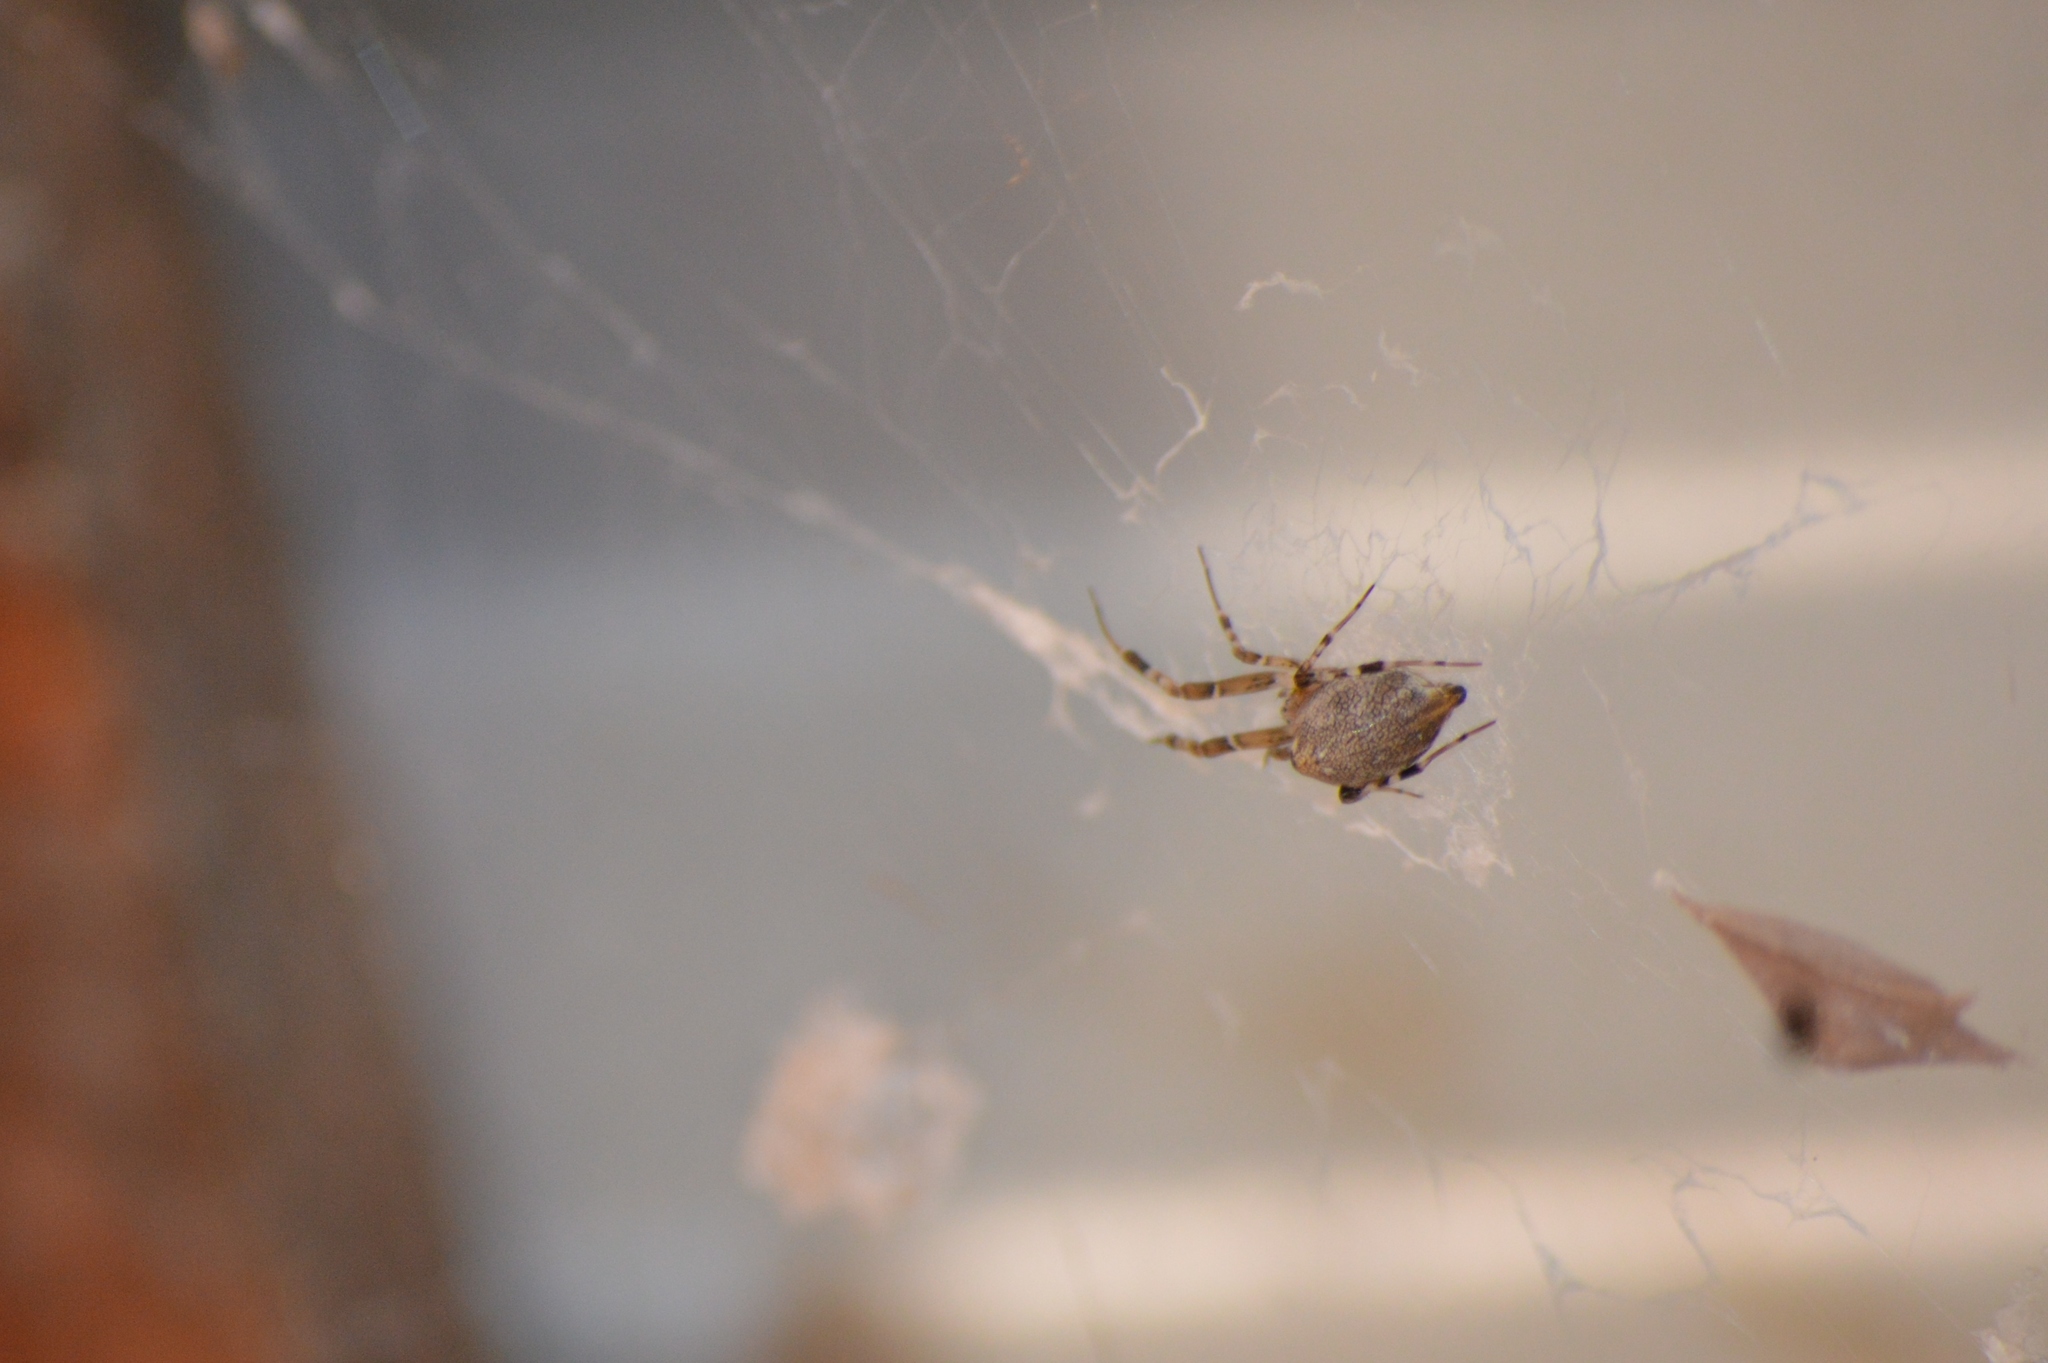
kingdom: Animalia
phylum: Arthropoda
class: Arachnida
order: Araneae
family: Uloboridae
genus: Zosis
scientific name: Zosis geniculata
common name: Hackled orb weavers
